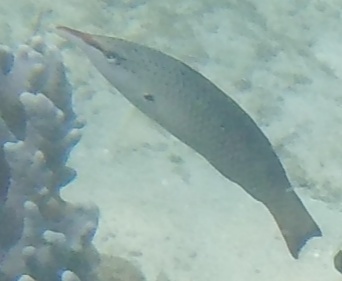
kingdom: Animalia
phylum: Chordata
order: Perciformes
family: Labridae
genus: Gomphosus
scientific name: Gomphosus caeruleus
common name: Bird wrasse
